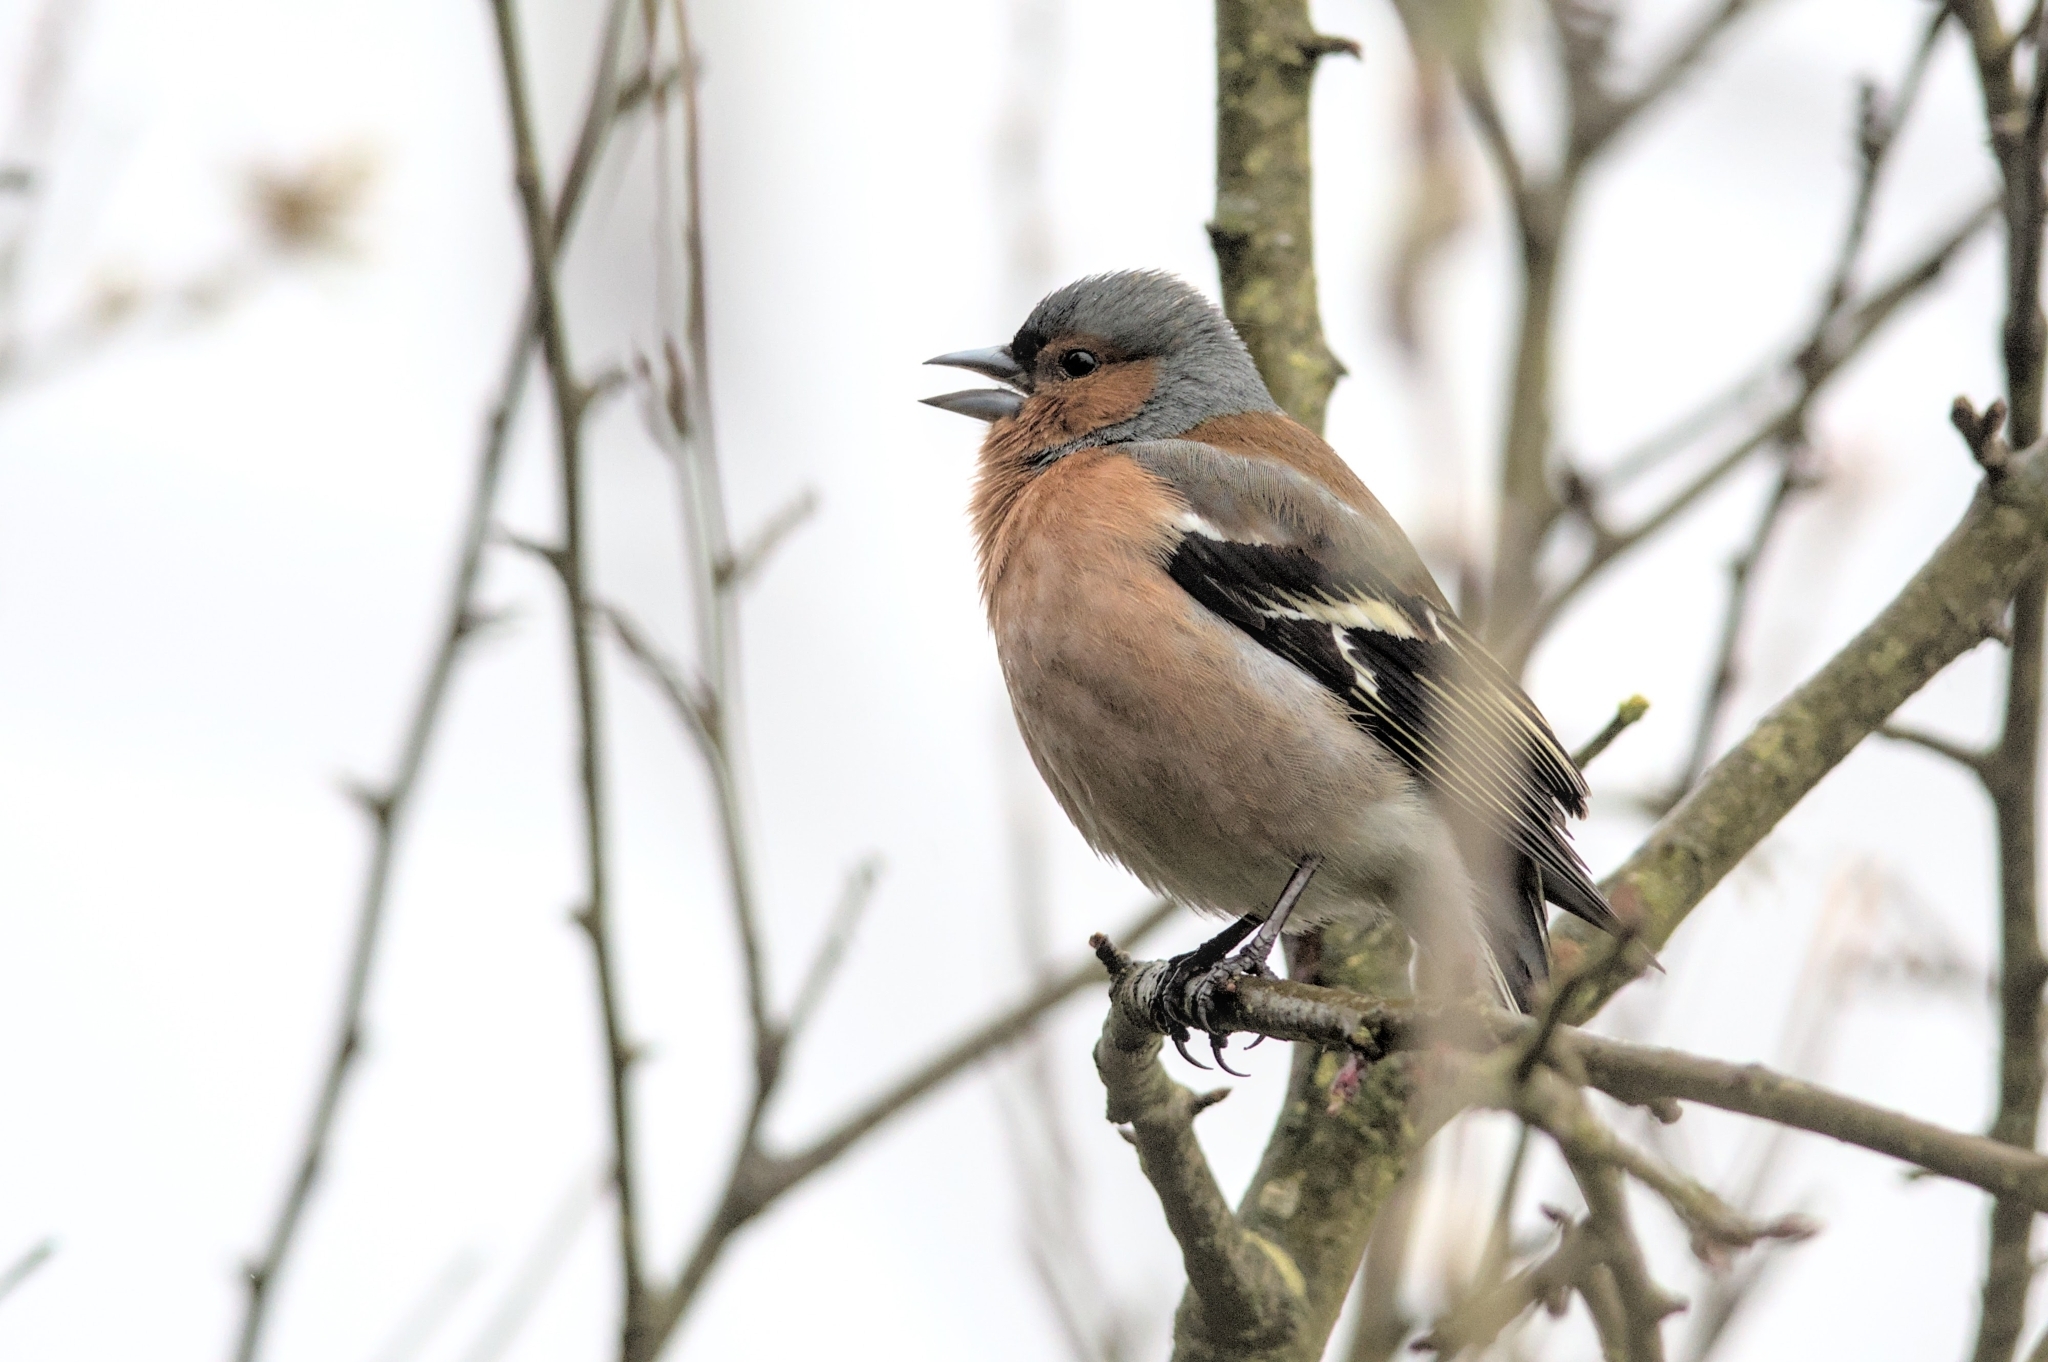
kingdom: Animalia
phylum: Chordata
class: Aves
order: Passeriformes
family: Fringillidae
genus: Fringilla
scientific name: Fringilla coelebs
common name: Common chaffinch
